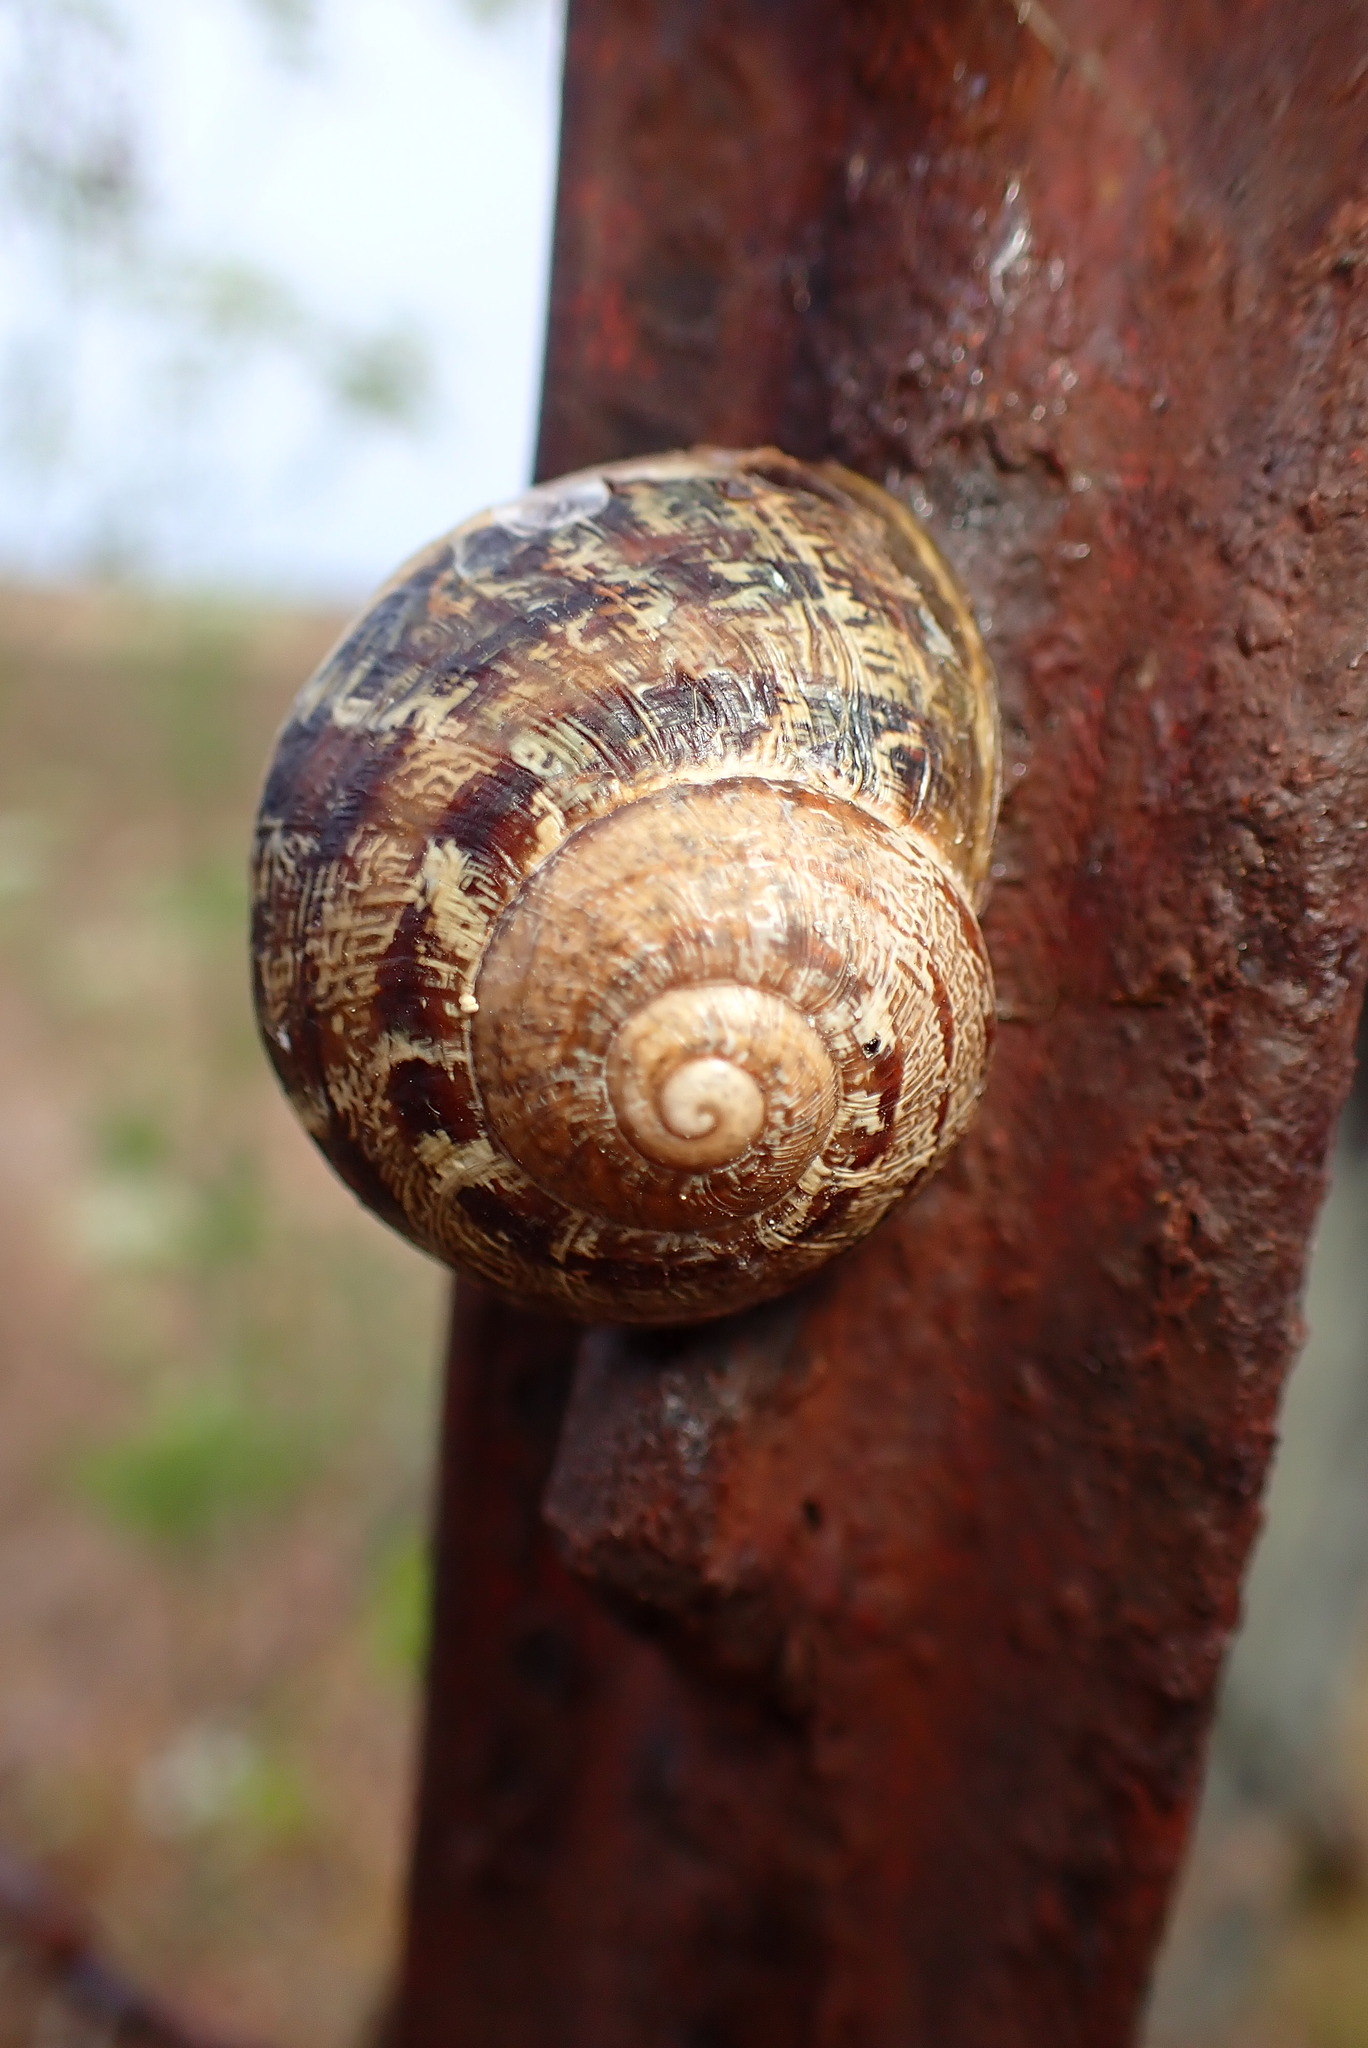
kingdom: Animalia
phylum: Mollusca
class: Gastropoda
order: Stylommatophora
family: Helicidae
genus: Cornu
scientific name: Cornu aspersum
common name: Brown garden snail
